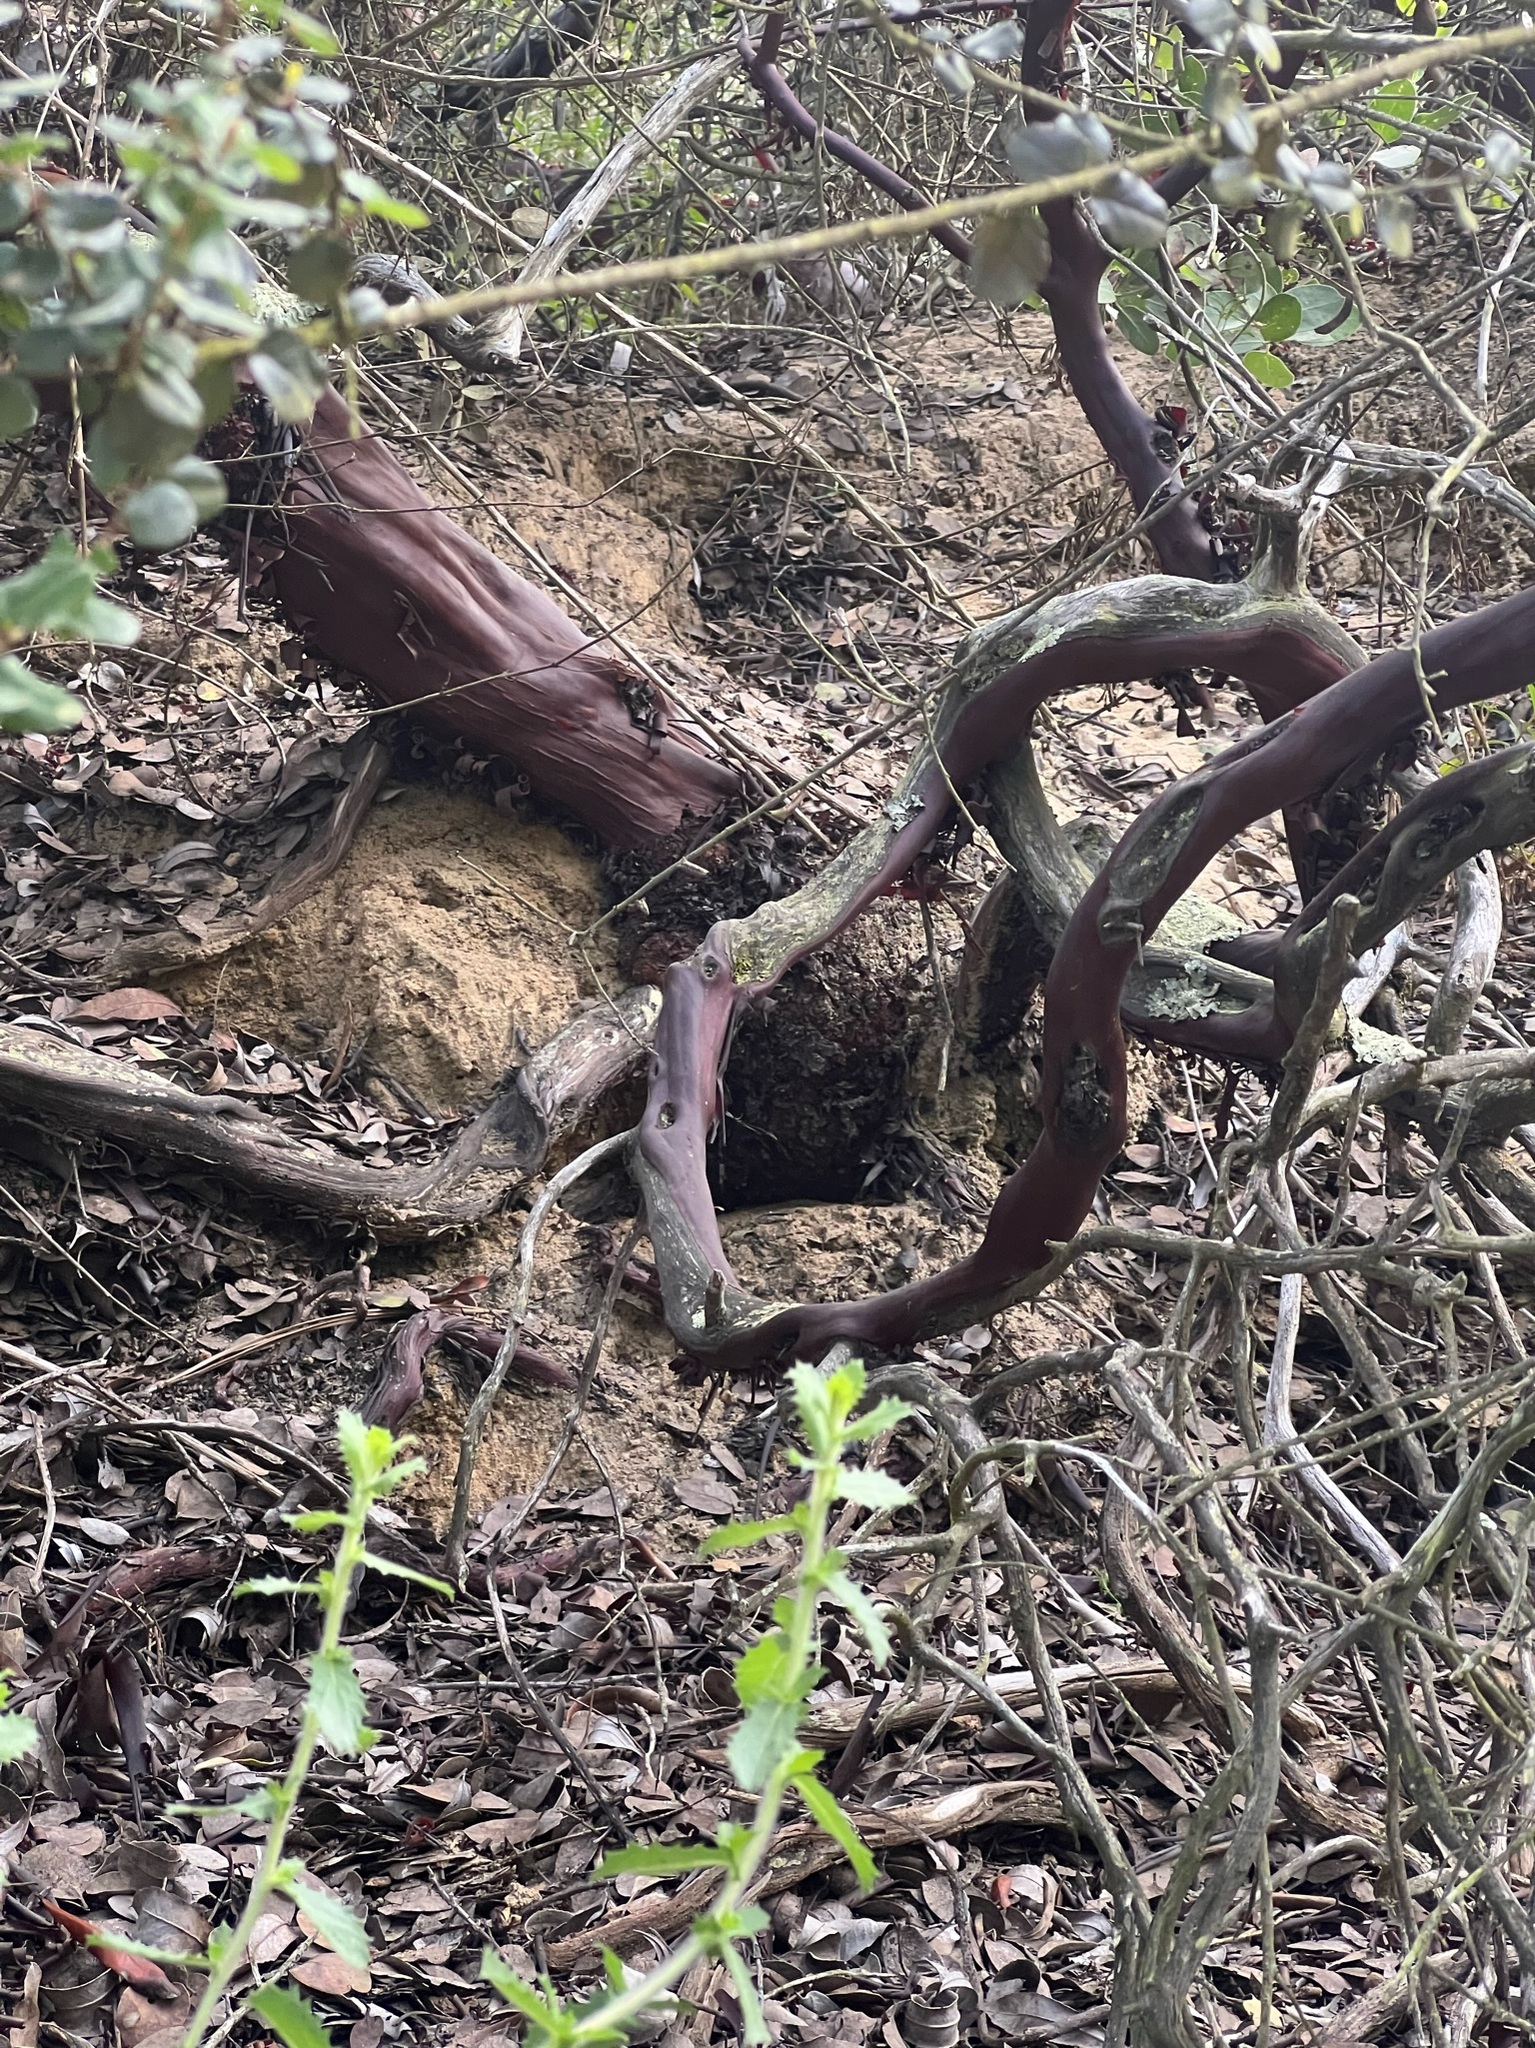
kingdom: Plantae
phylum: Tracheophyta
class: Magnoliopsida
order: Ericales
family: Ericaceae
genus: Arctostaphylos
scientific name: Arctostaphylos glandulosa
